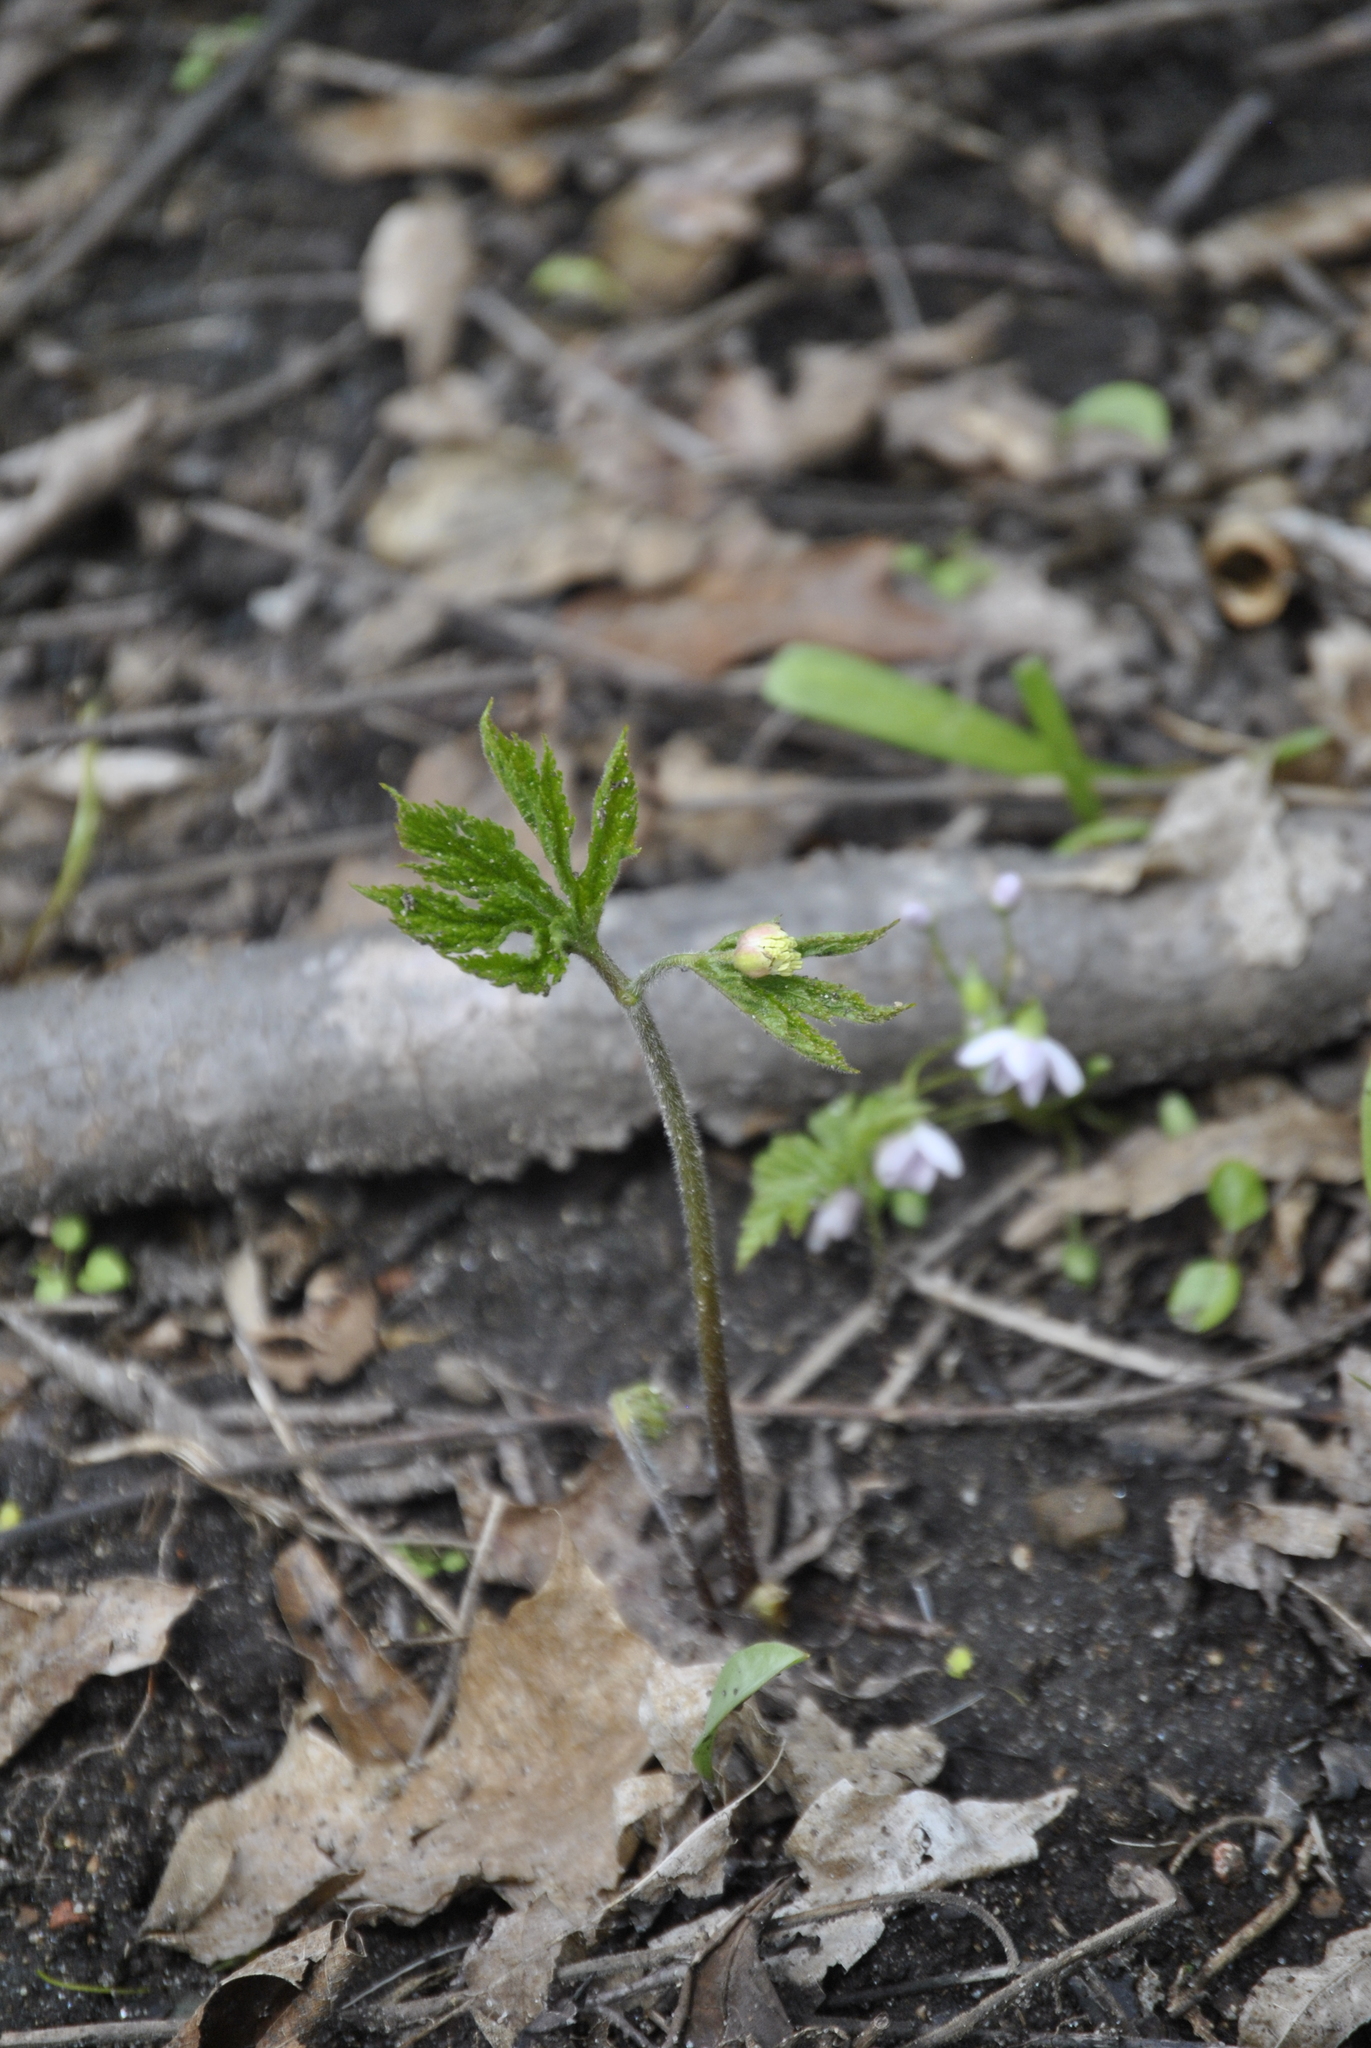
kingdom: Plantae
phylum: Tracheophyta
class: Magnoliopsida
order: Ranunculales
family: Ranunculaceae
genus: Hydrastis
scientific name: Hydrastis canadensis
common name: Goldenseal
